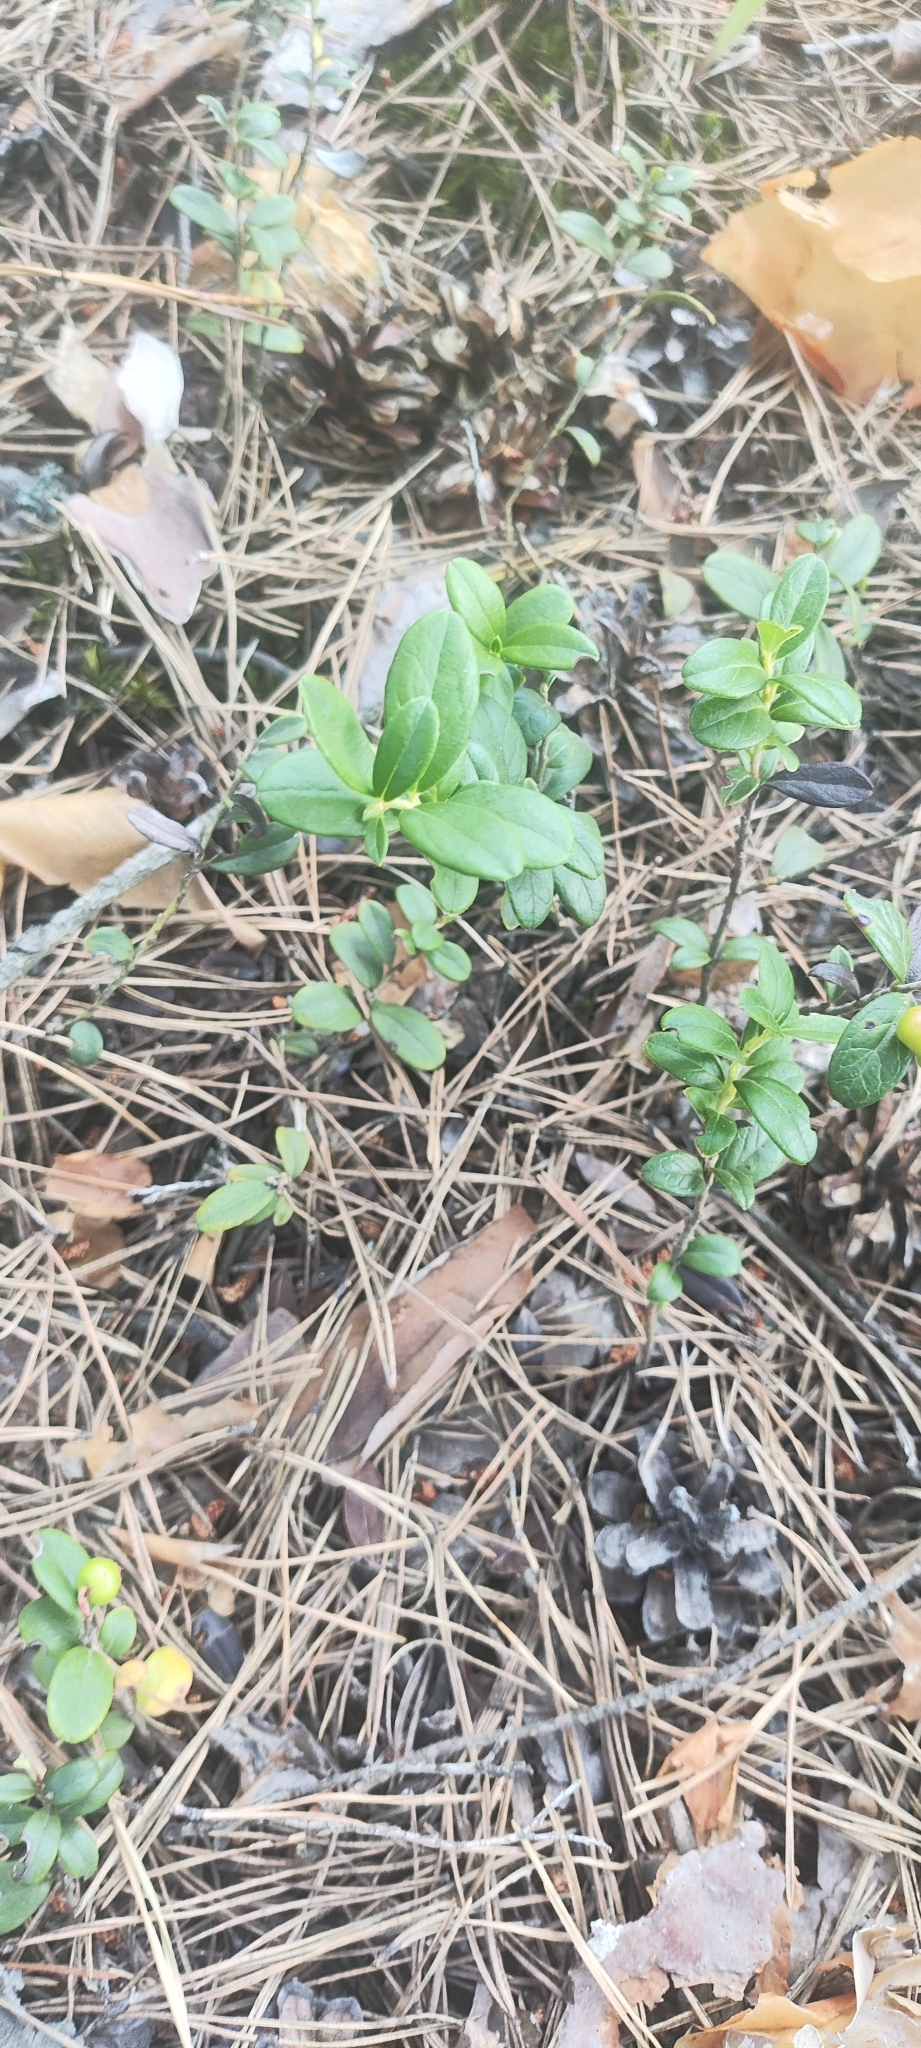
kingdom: Plantae
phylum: Tracheophyta
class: Magnoliopsida
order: Ericales
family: Ericaceae
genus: Vaccinium
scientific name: Vaccinium vitis-idaea
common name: Cowberry
